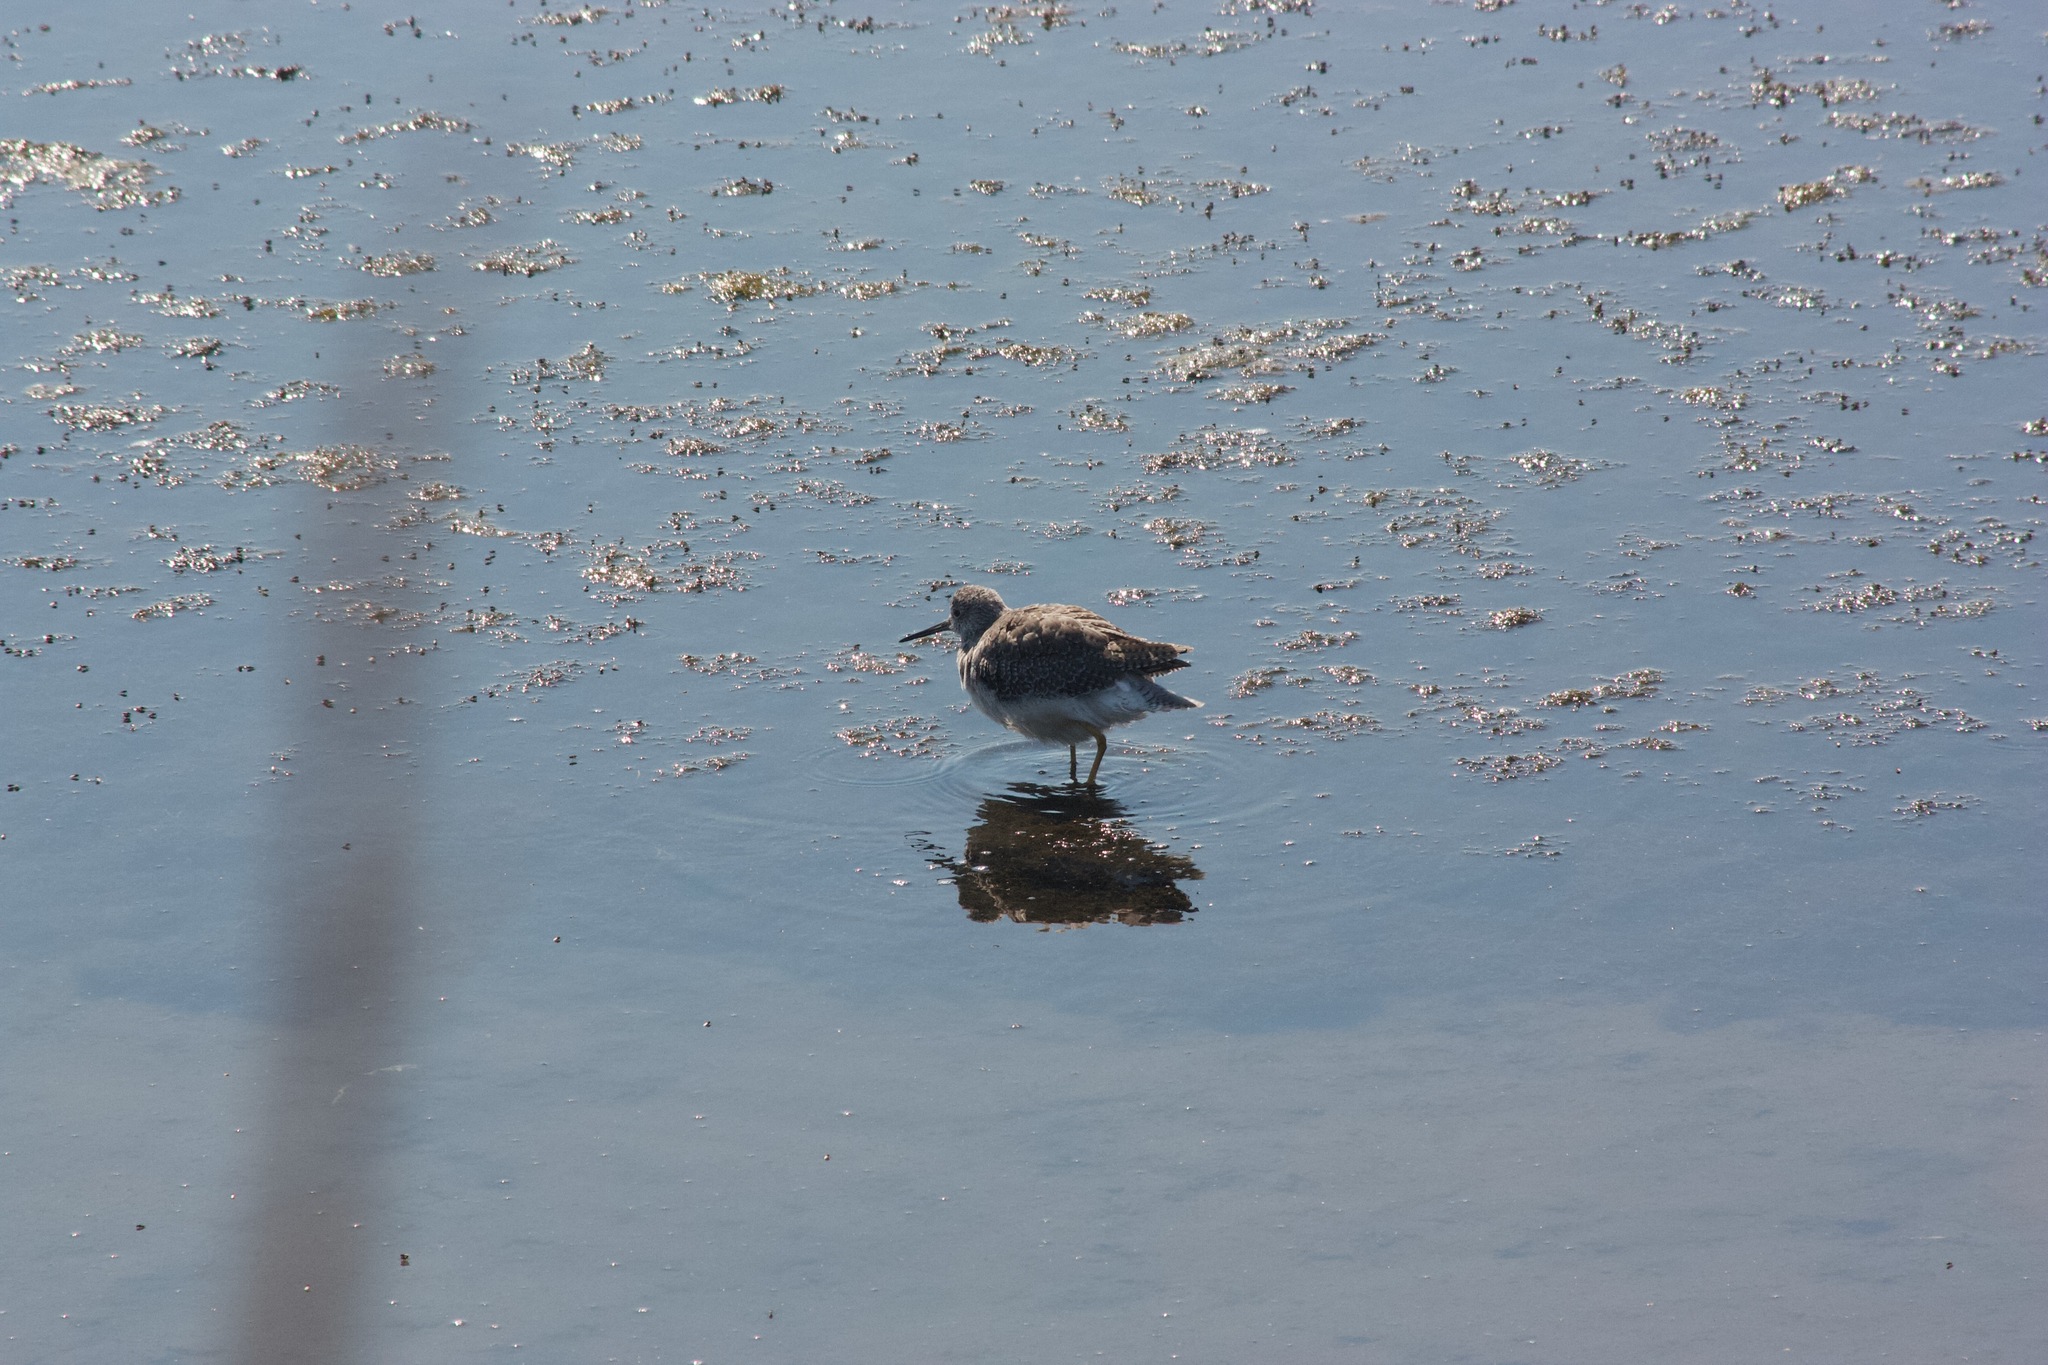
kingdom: Animalia
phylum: Chordata
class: Aves
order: Charadriiformes
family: Scolopacidae
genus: Tringa
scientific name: Tringa melanoleuca
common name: Greater yellowlegs
